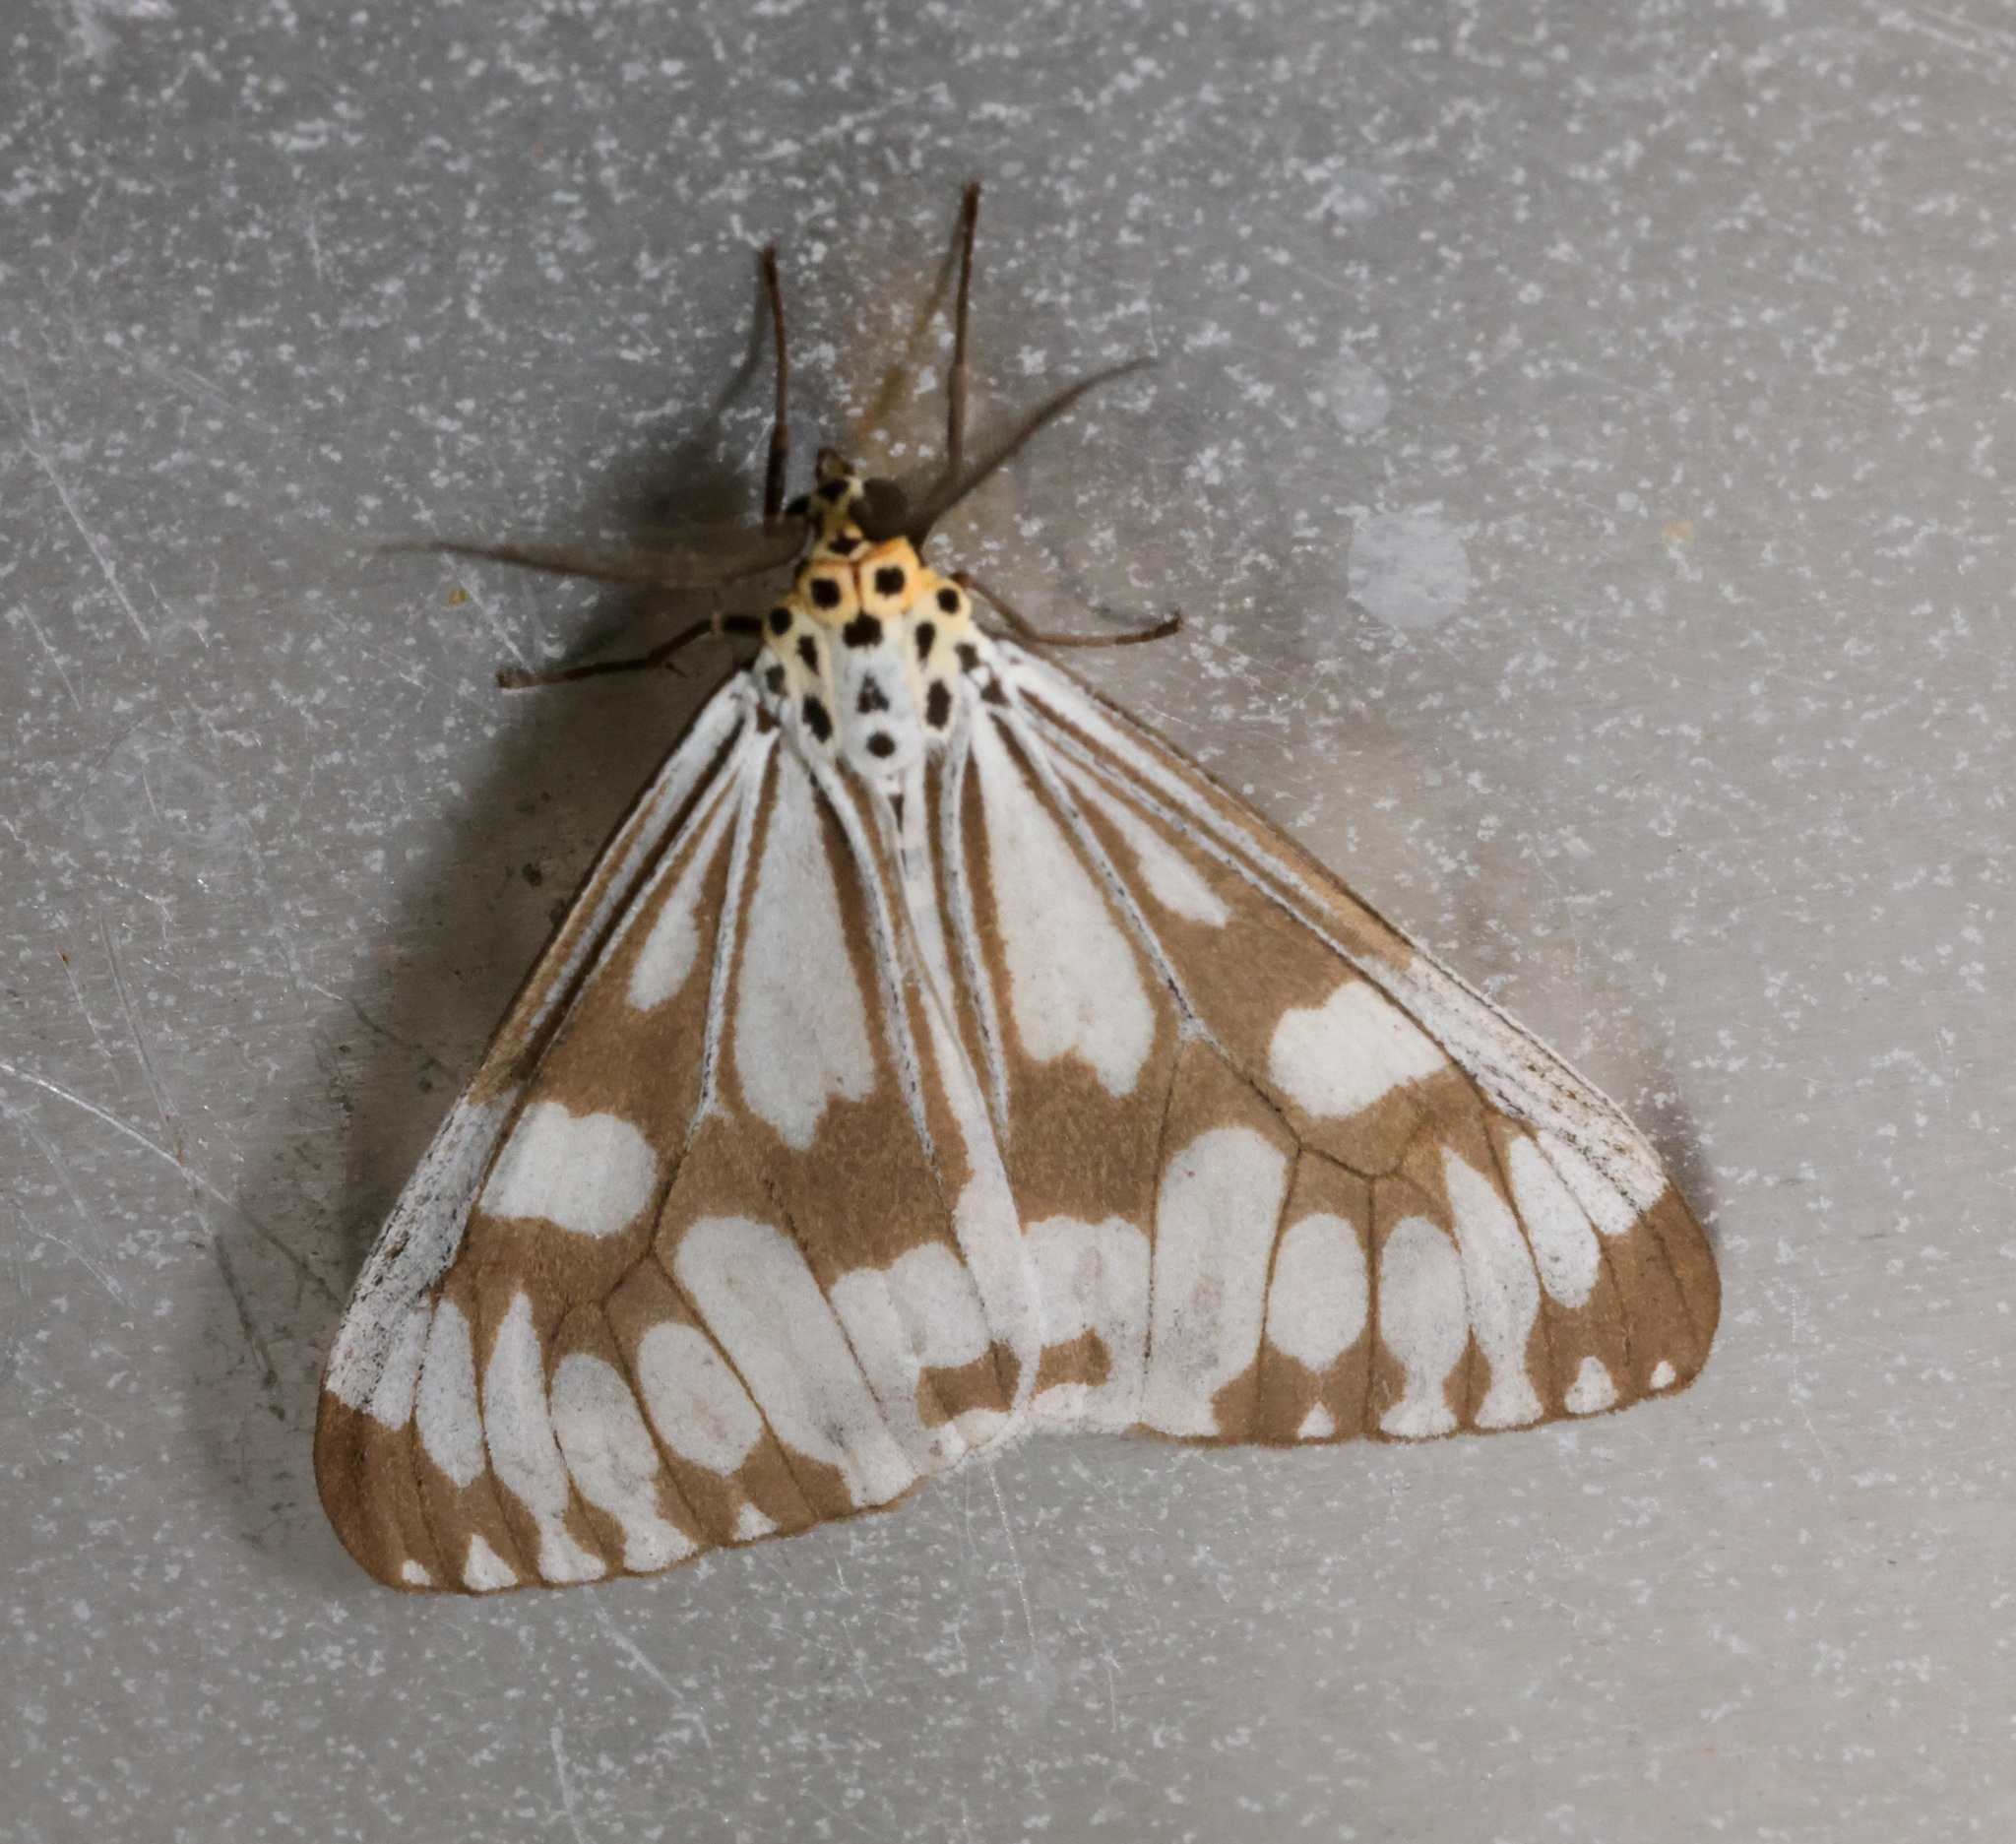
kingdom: Animalia
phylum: Arthropoda
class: Insecta
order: Lepidoptera
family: Erebidae
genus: Nyctemera
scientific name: Nyctemera adversata
